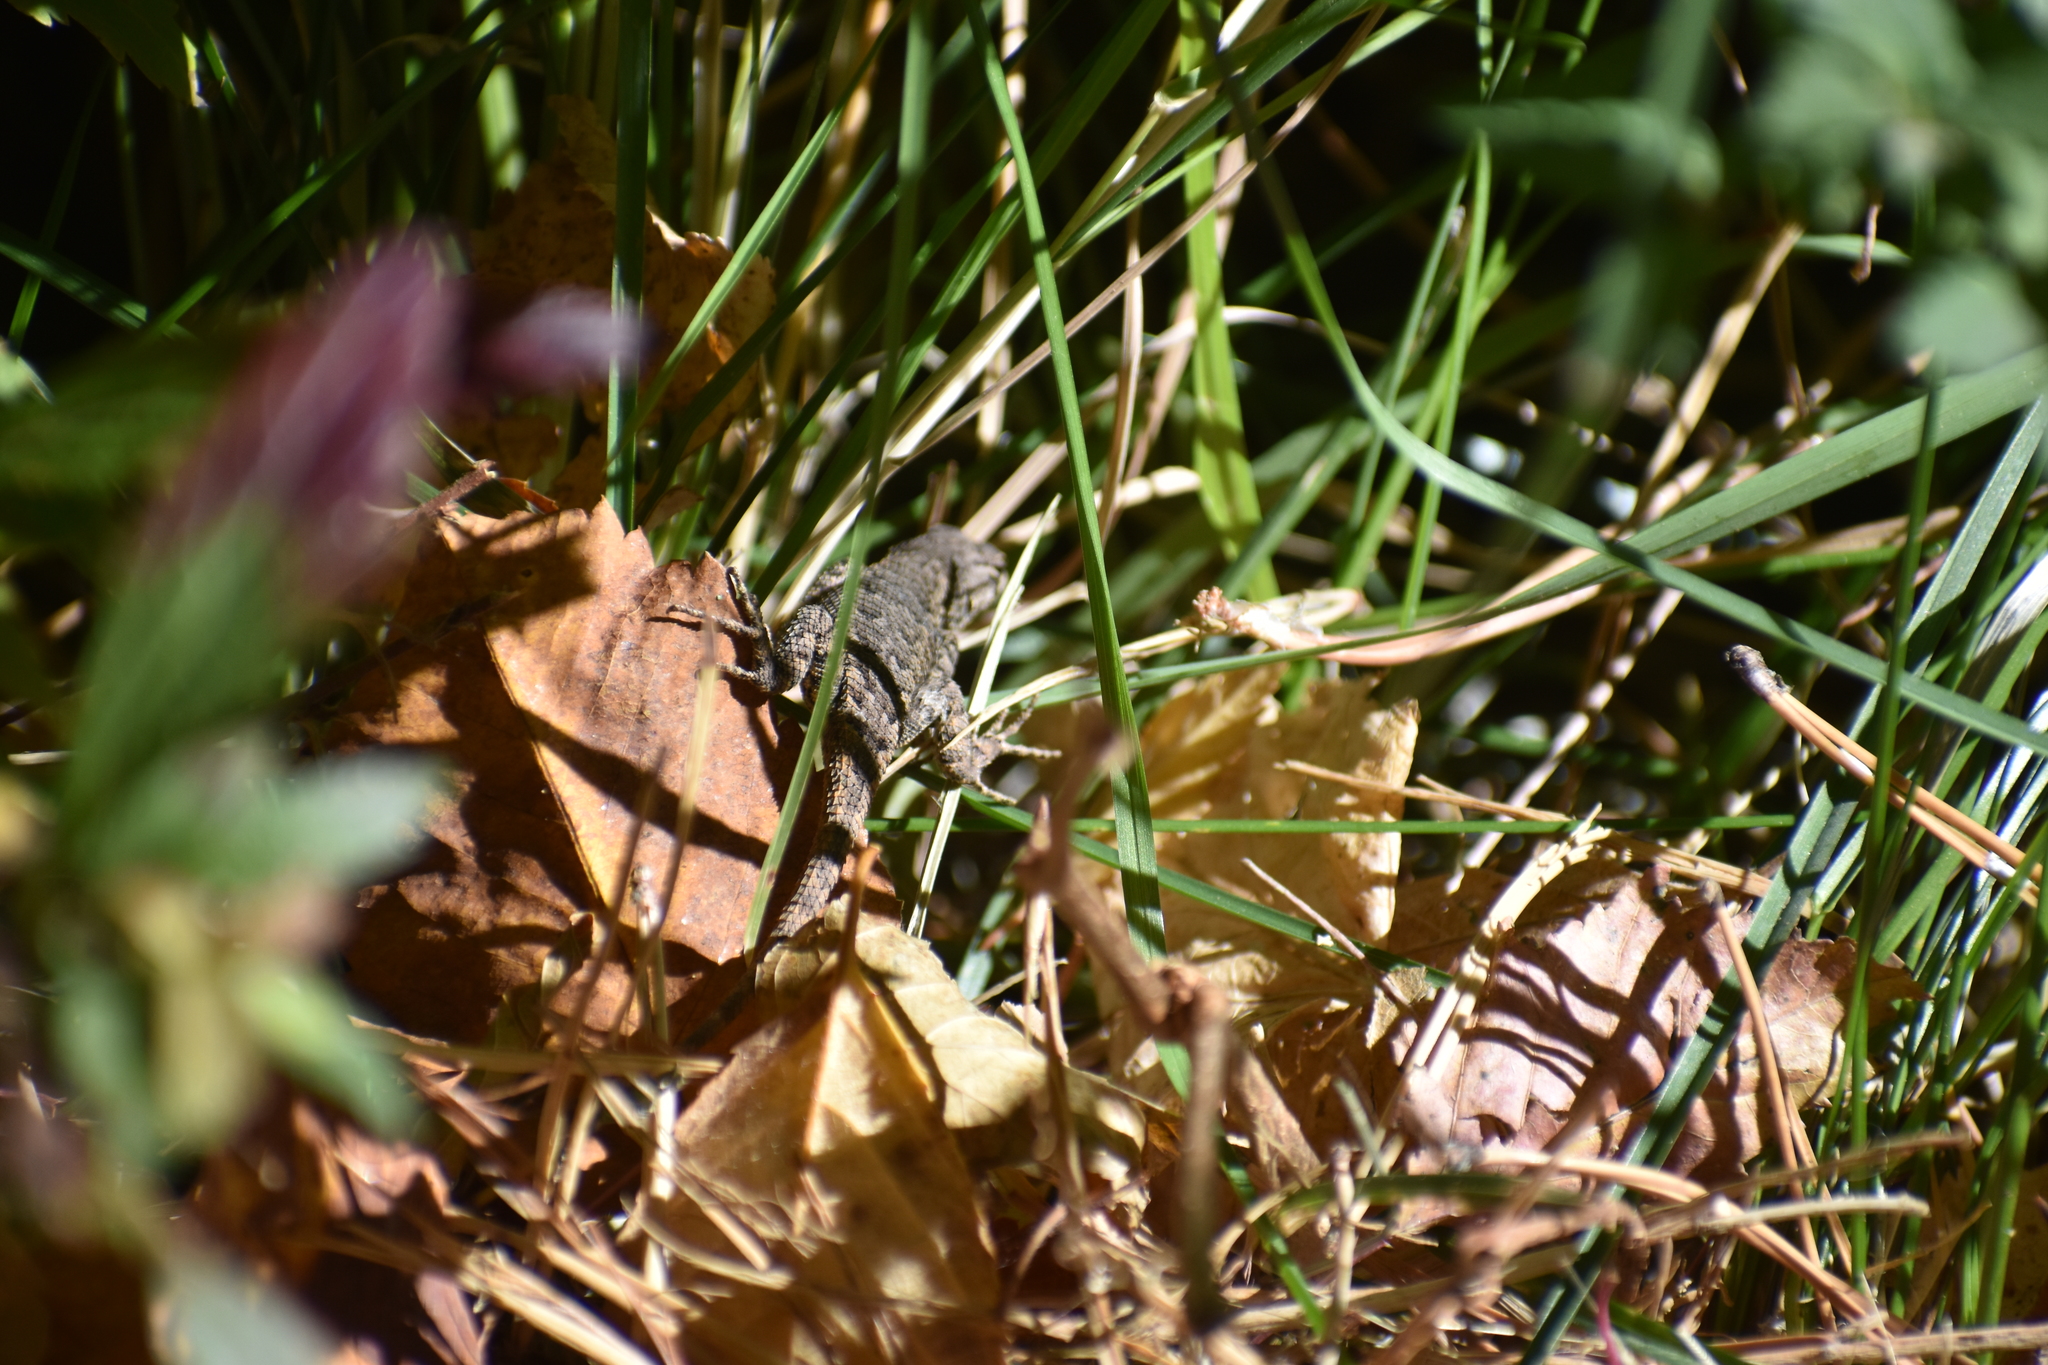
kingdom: Animalia
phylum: Chordata
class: Squamata
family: Phrynosomatidae
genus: Sceloporus
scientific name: Sceloporus consobrinus
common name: Southern prairie lizard
